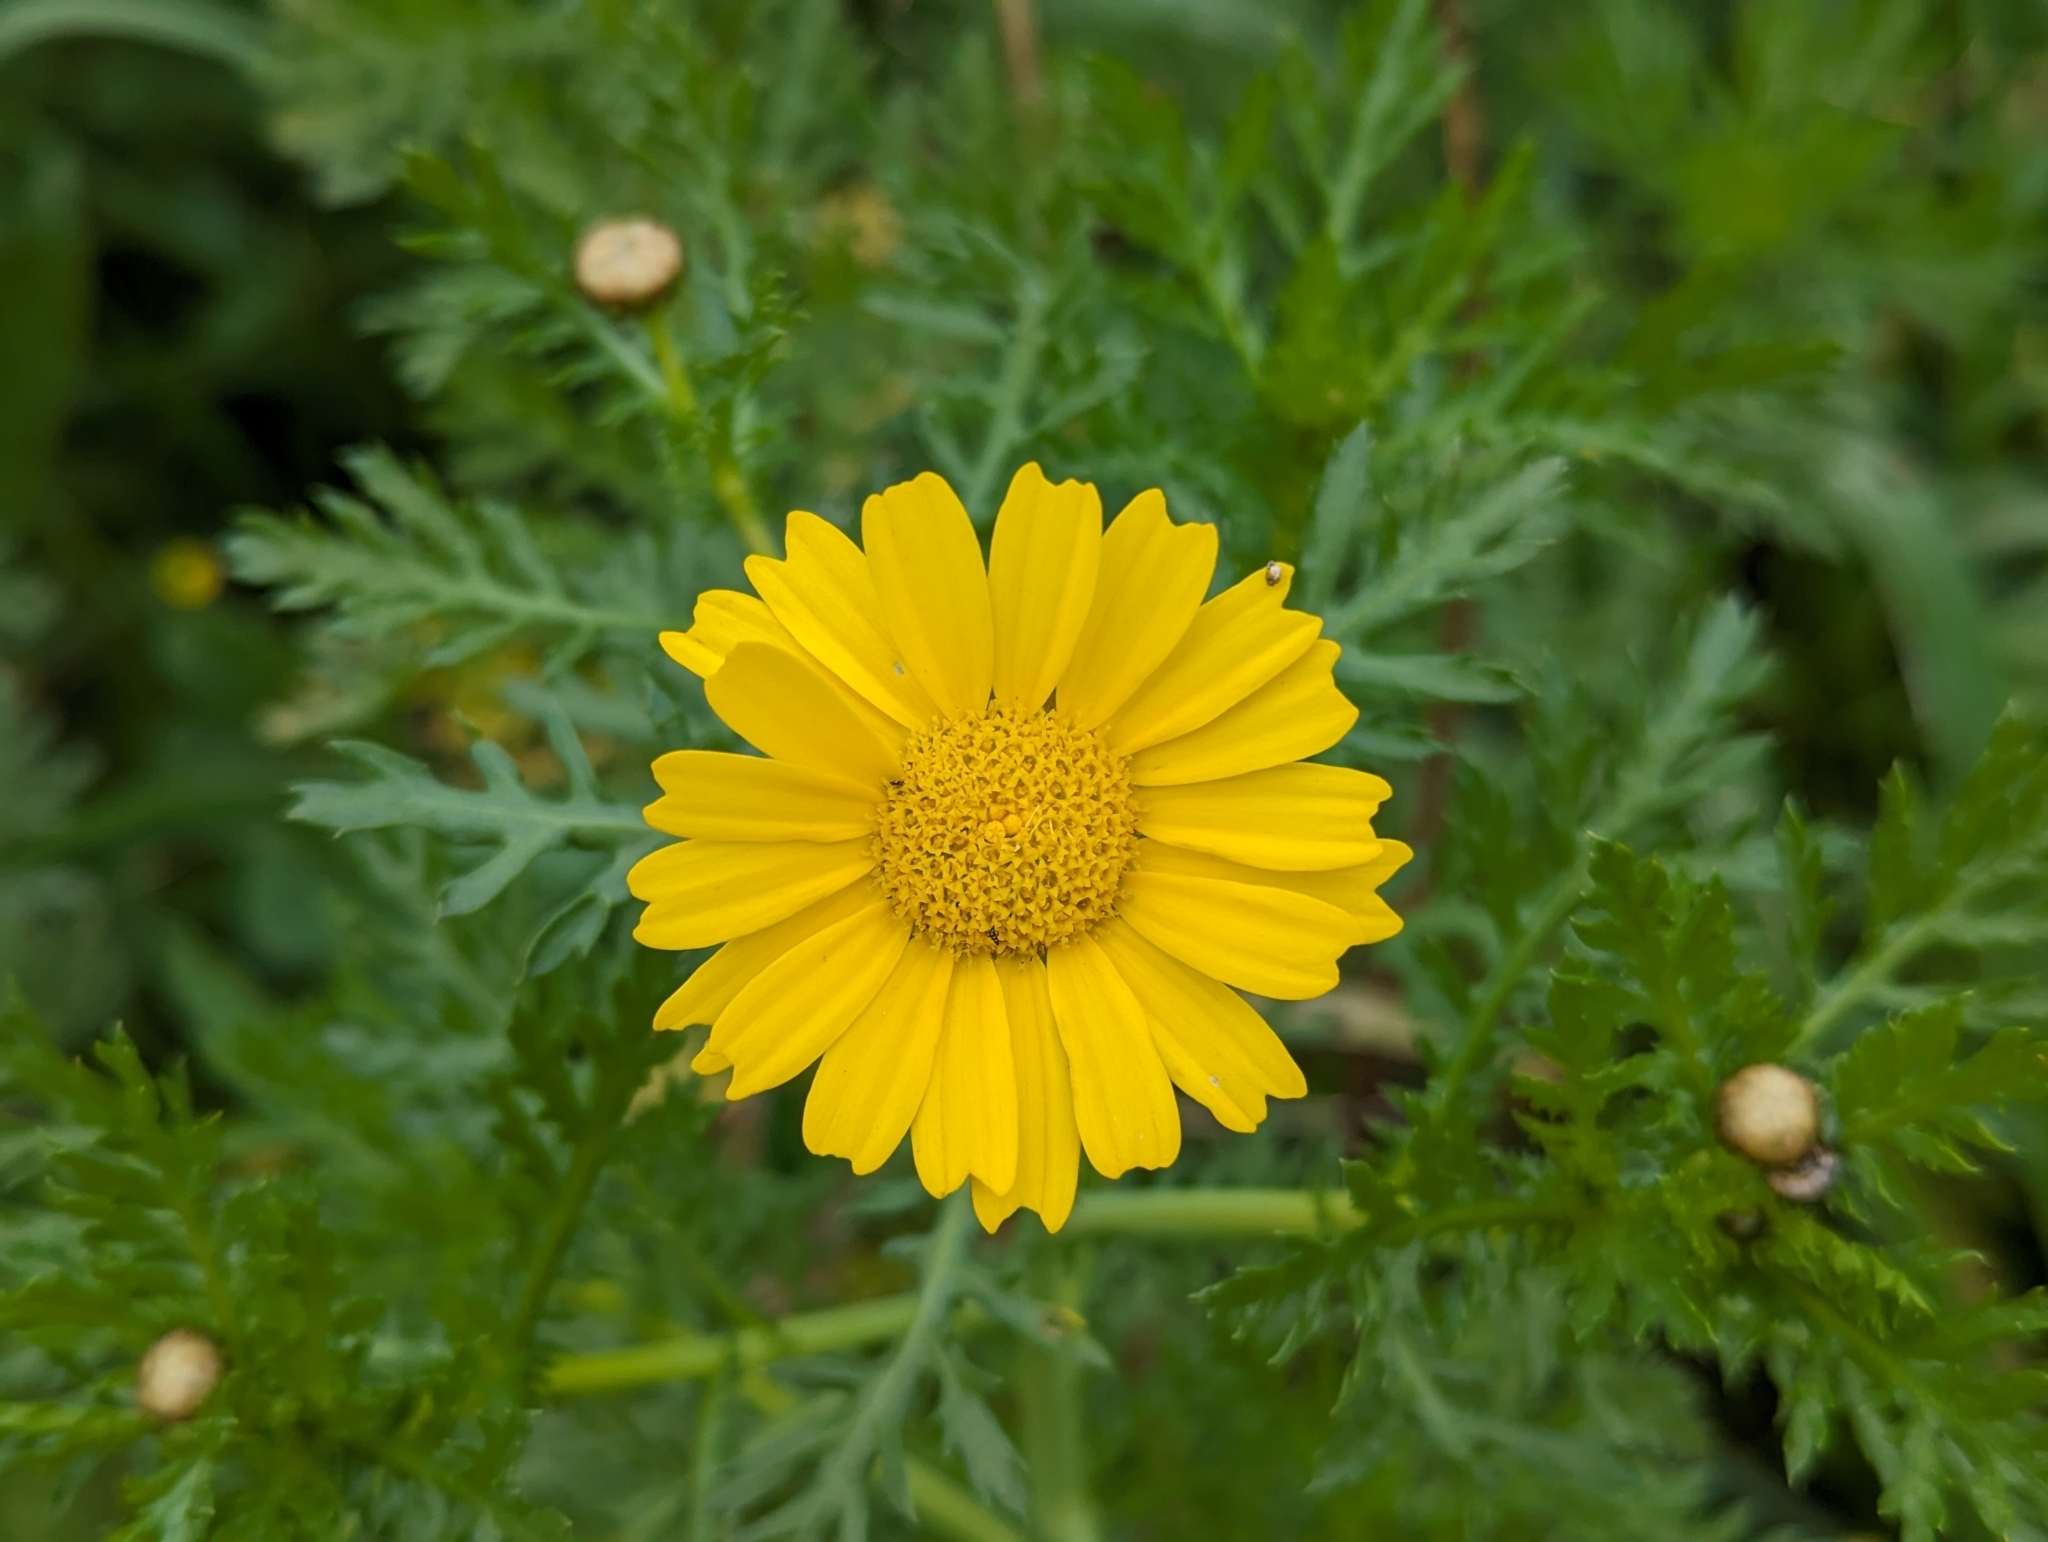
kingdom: Plantae
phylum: Tracheophyta
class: Magnoliopsida
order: Asterales
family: Asteraceae
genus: Glebionis
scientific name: Glebionis coronaria
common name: Crowndaisy
